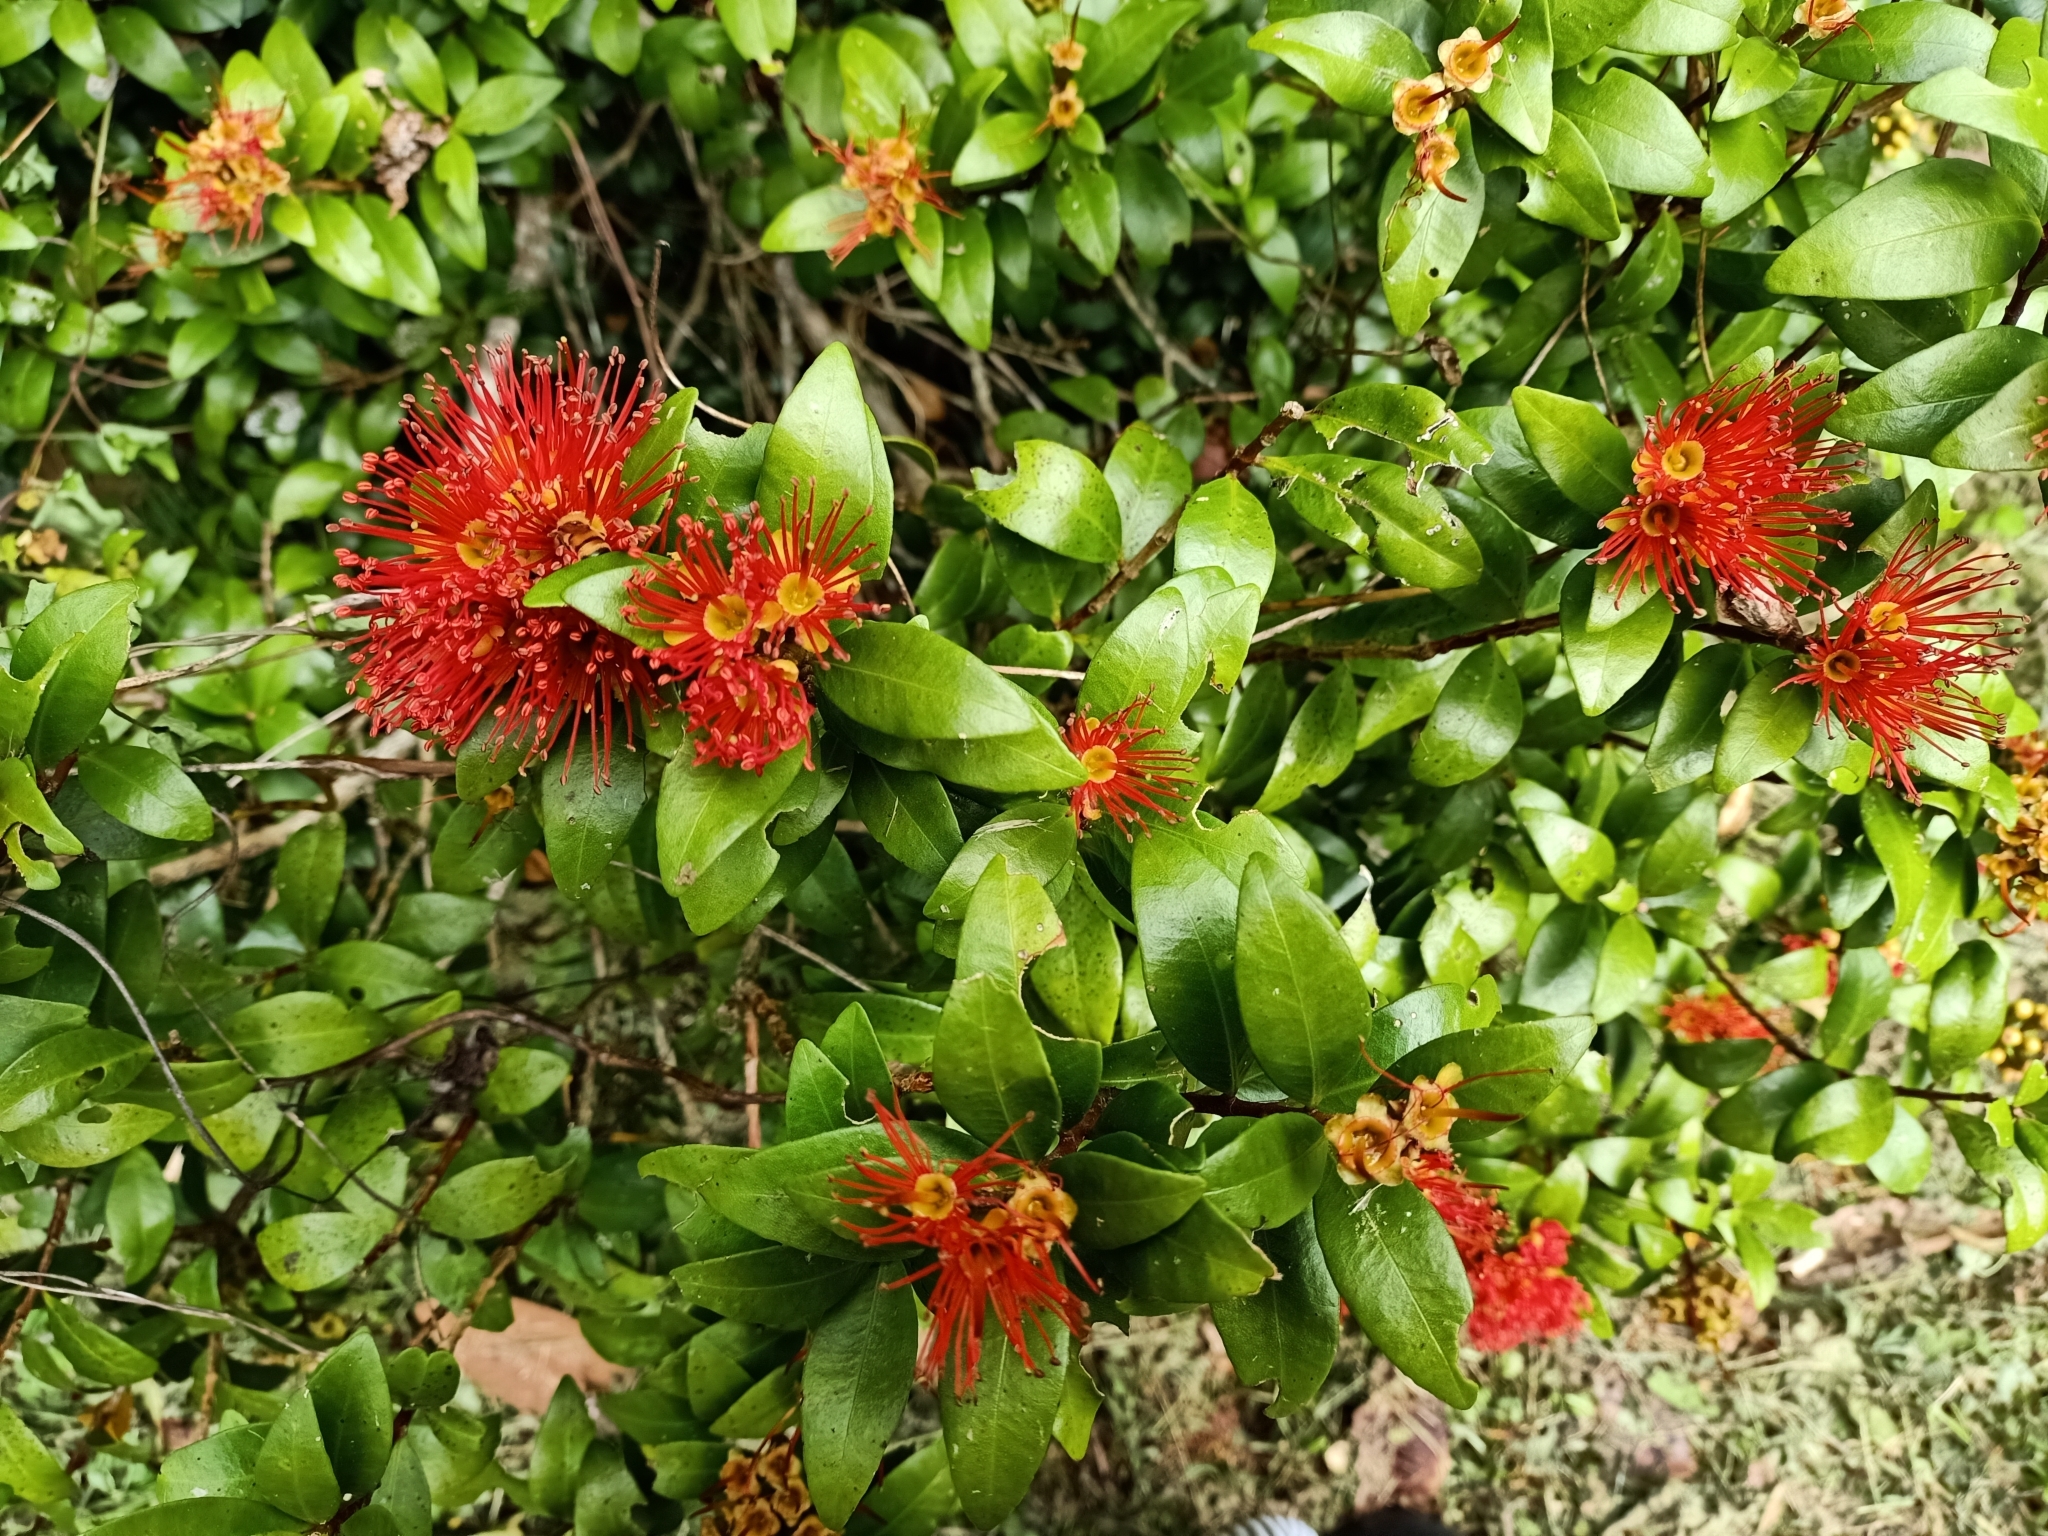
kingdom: Plantae
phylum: Tracheophyta
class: Magnoliopsida
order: Myrtales
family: Myrtaceae
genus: Metrosideros
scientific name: Metrosideros fulgens
